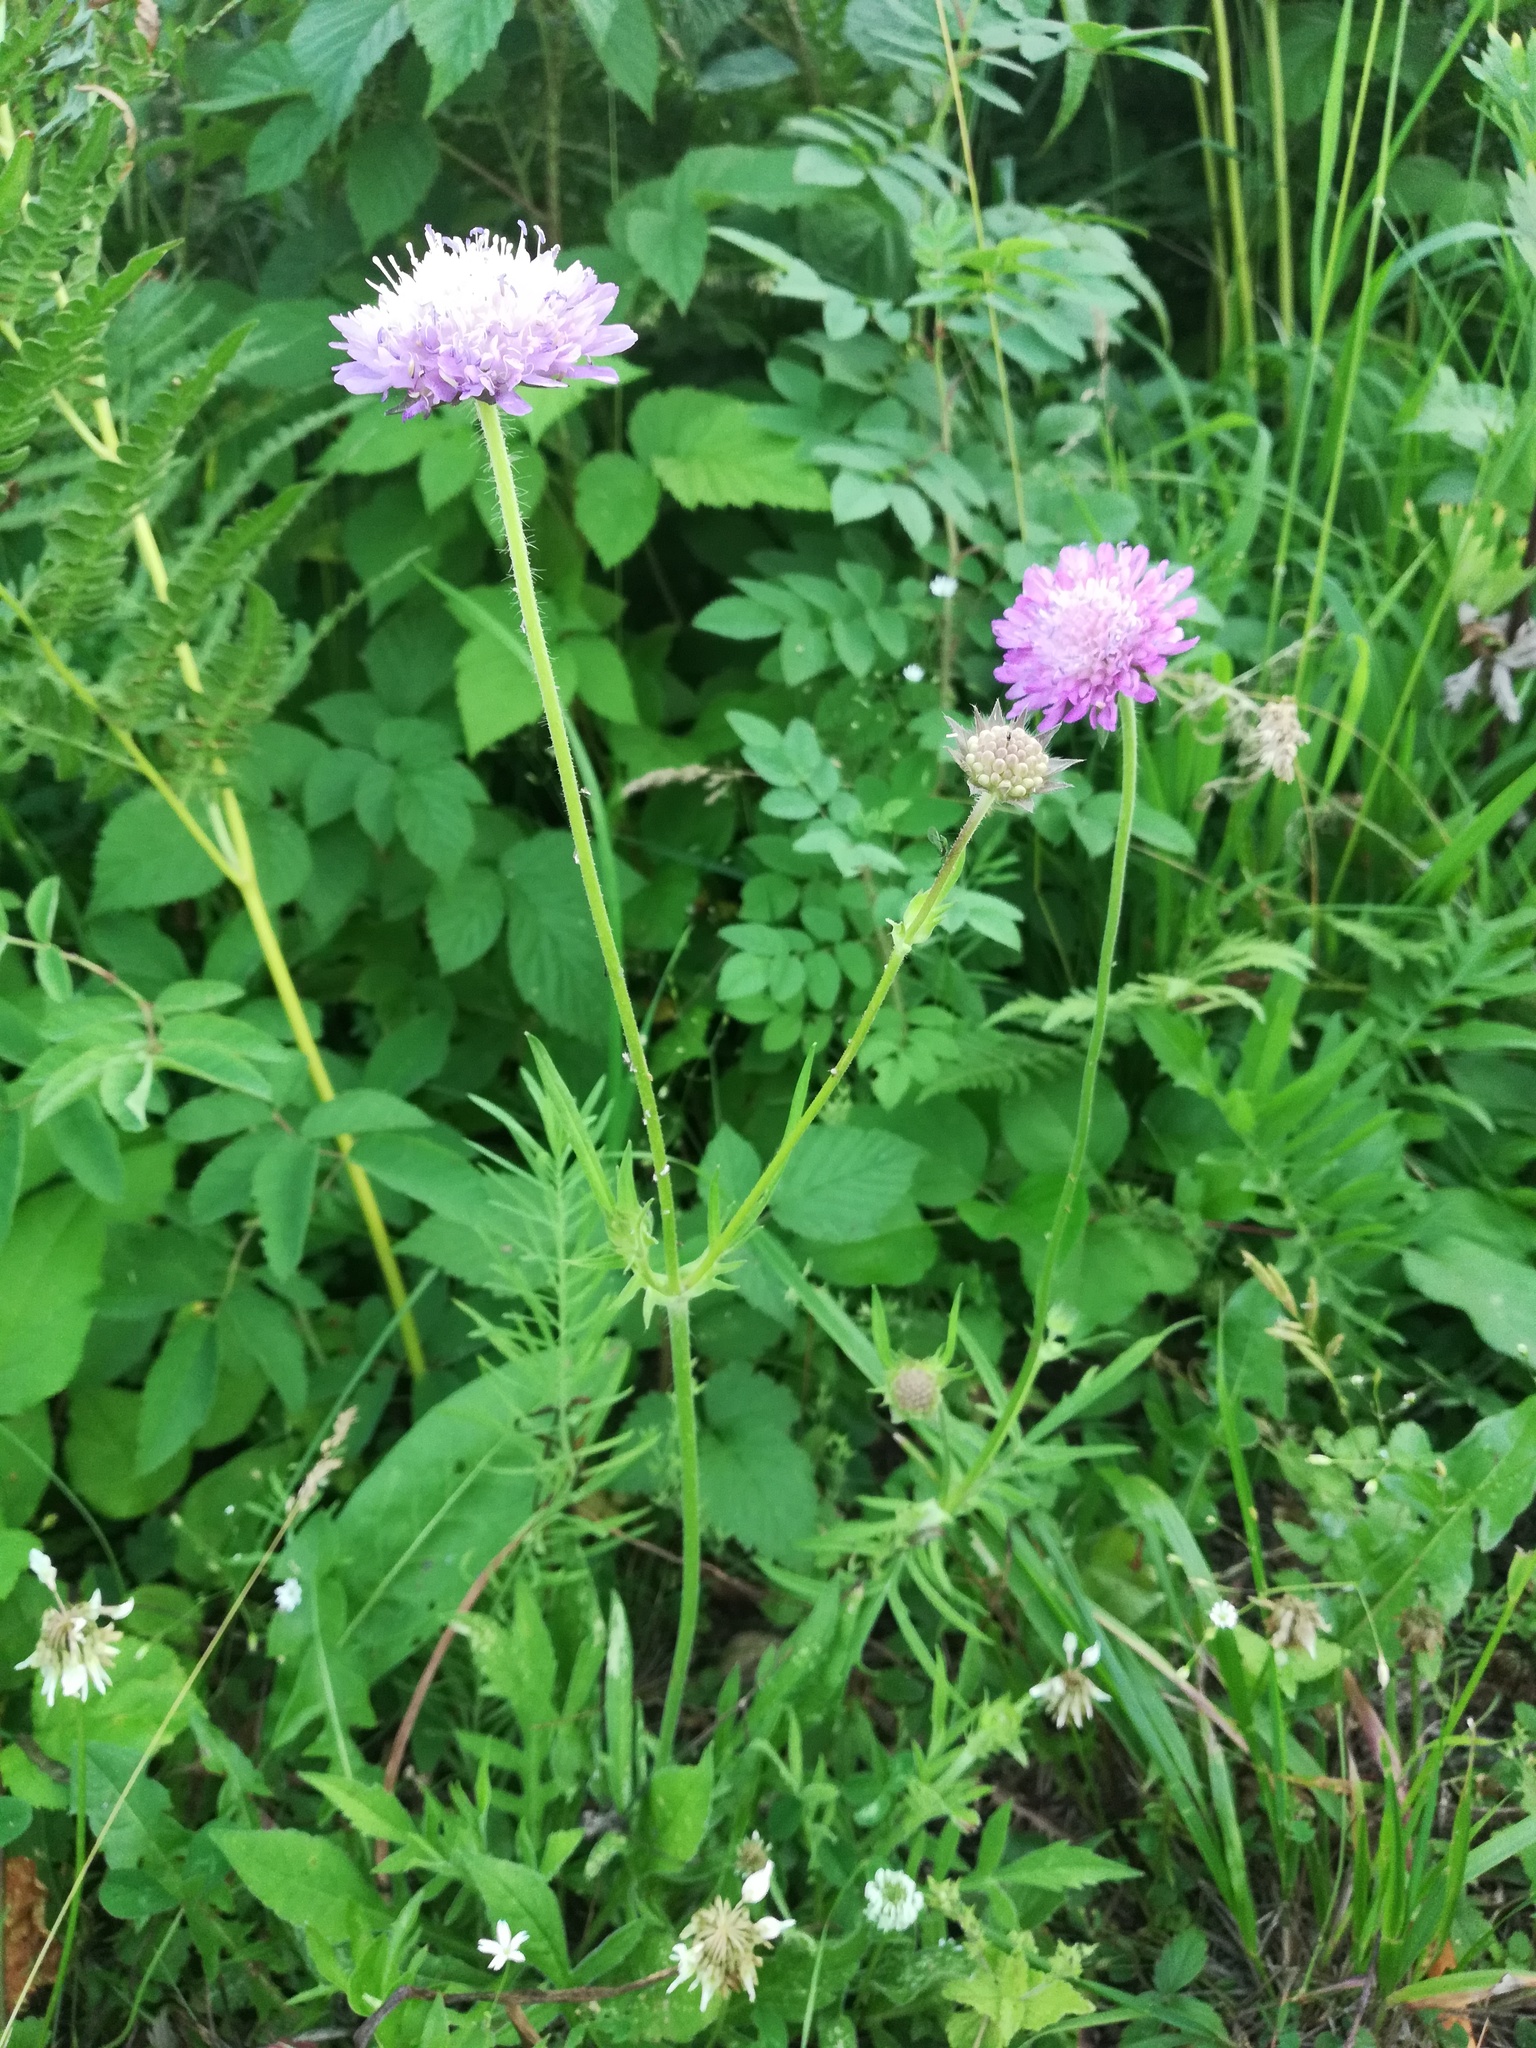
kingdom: Plantae
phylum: Tracheophyta
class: Magnoliopsida
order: Dipsacales
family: Caprifoliaceae
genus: Knautia
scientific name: Knautia arvensis
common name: Field scabiosa
